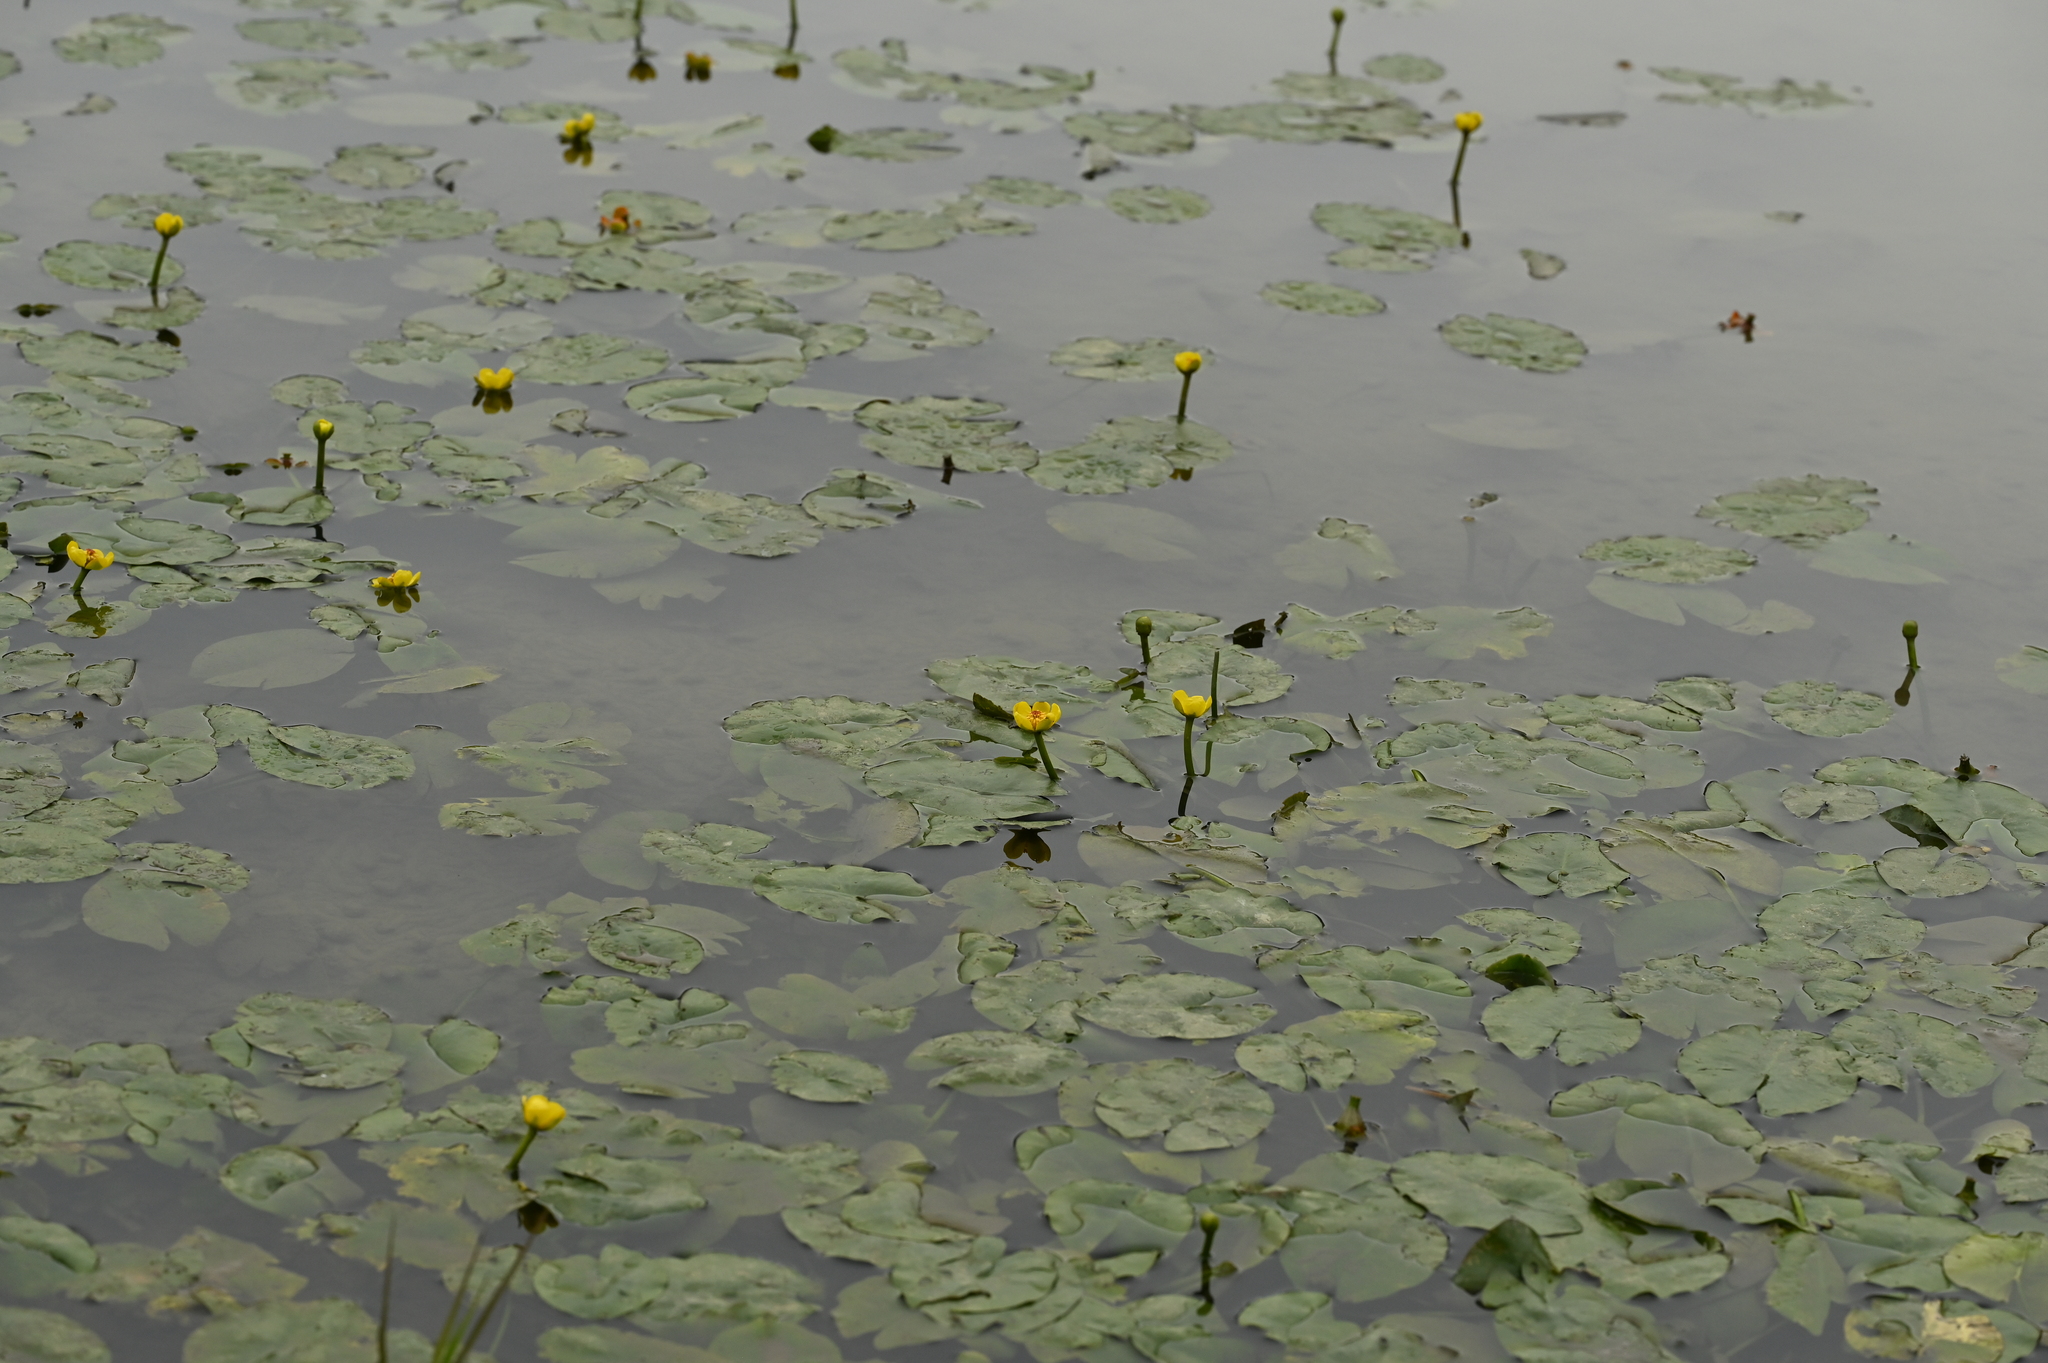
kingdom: Plantae
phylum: Tracheophyta
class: Magnoliopsida
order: Nymphaeales
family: Nymphaeaceae
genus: Nuphar
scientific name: Nuphar pumila
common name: Least water-lily
